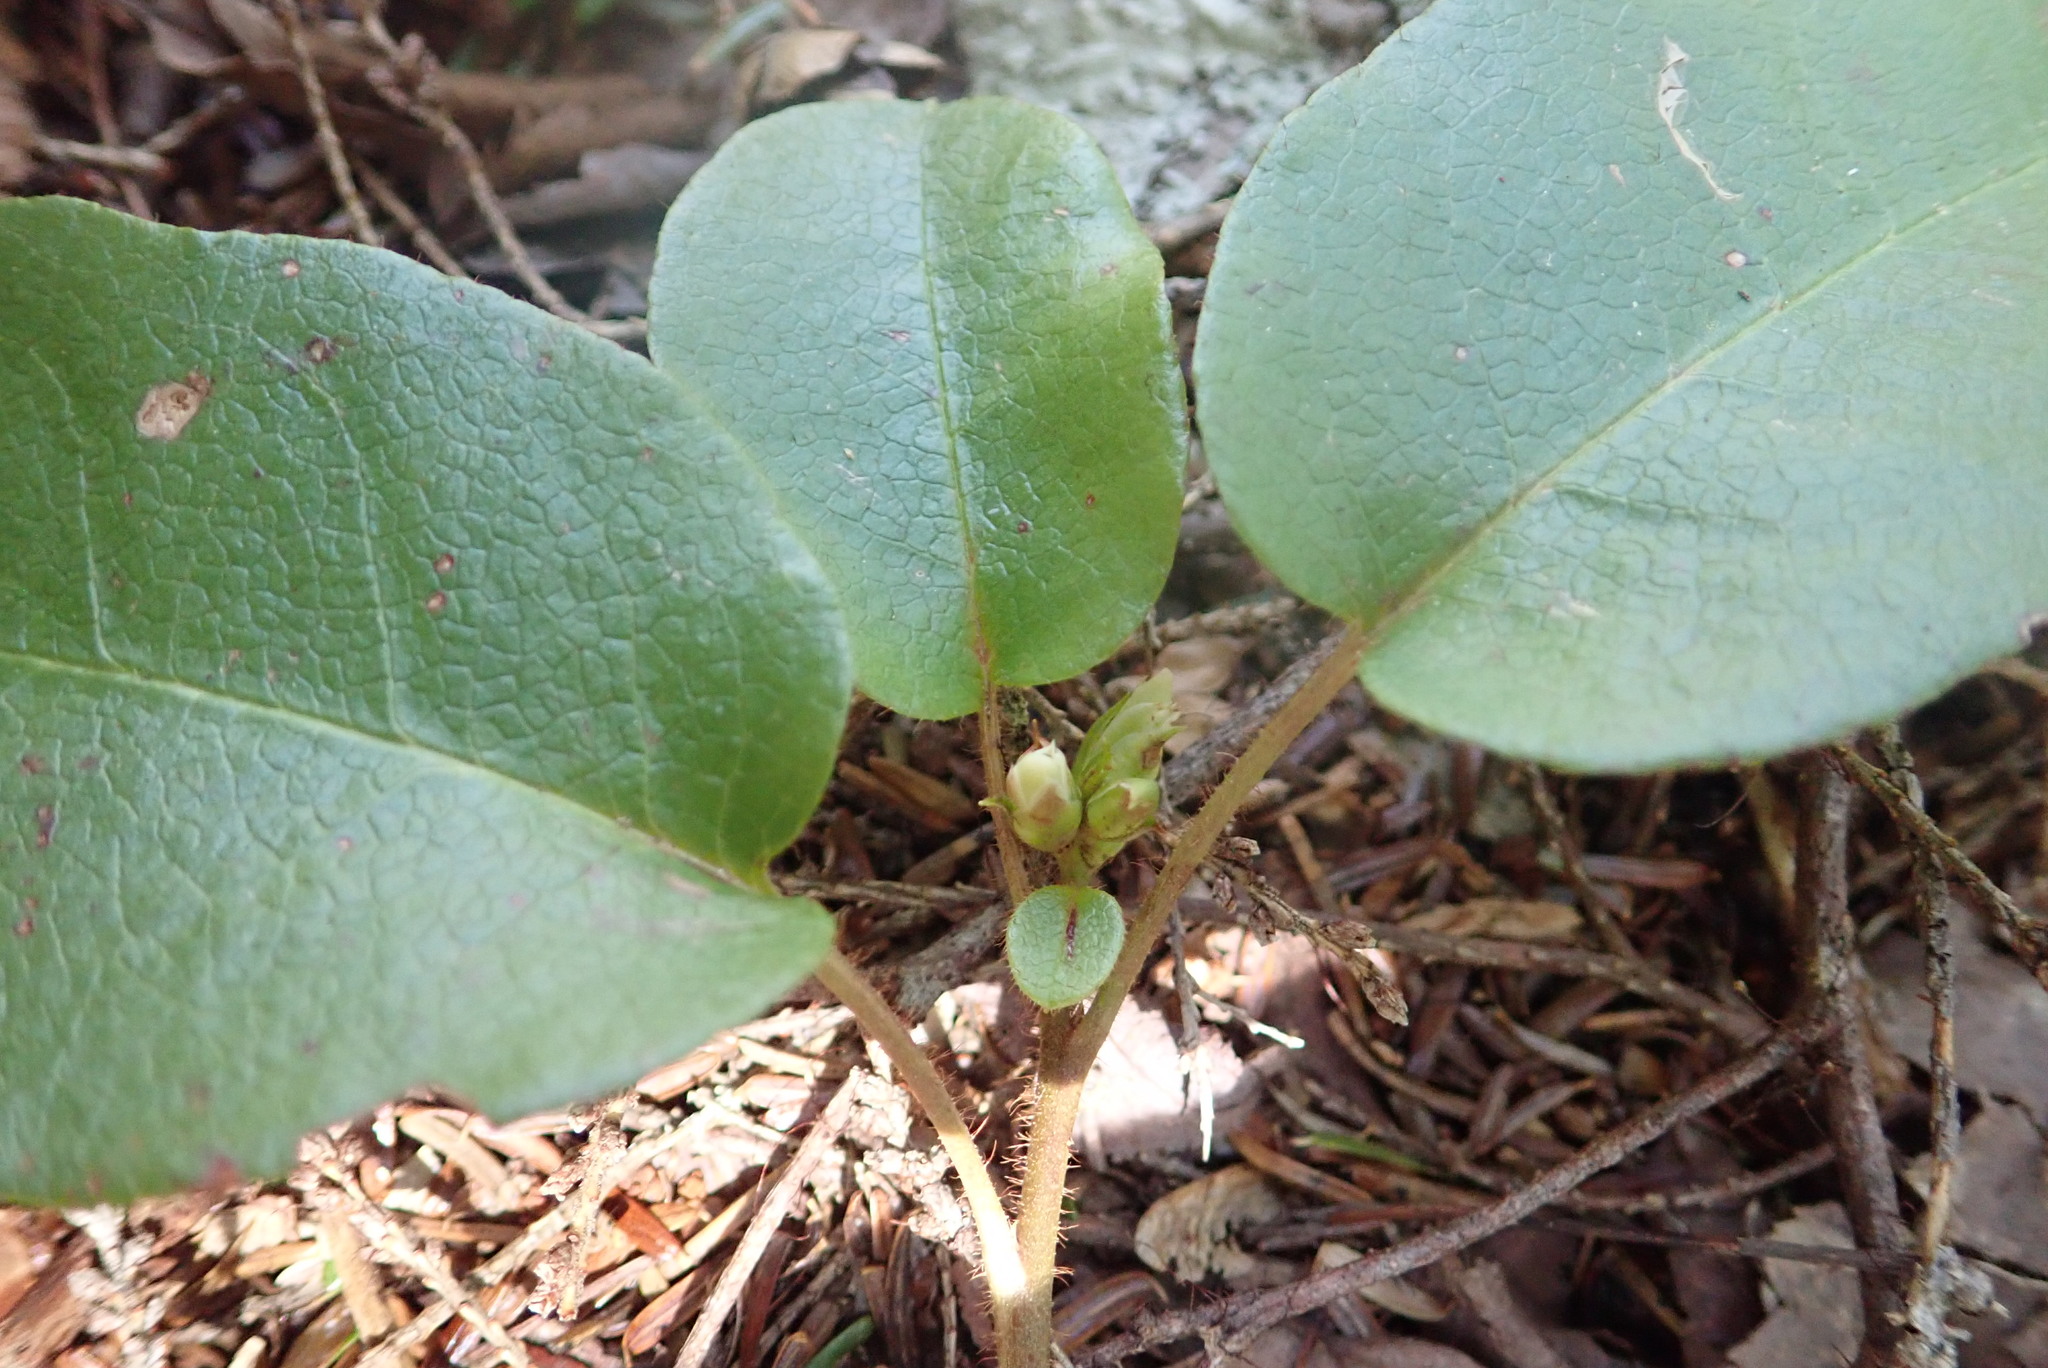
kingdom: Plantae
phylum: Tracheophyta
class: Magnoliopsida
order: Ericales
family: Ericaceae
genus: Epigaea
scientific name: Epigaea repens
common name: Gravelroot
